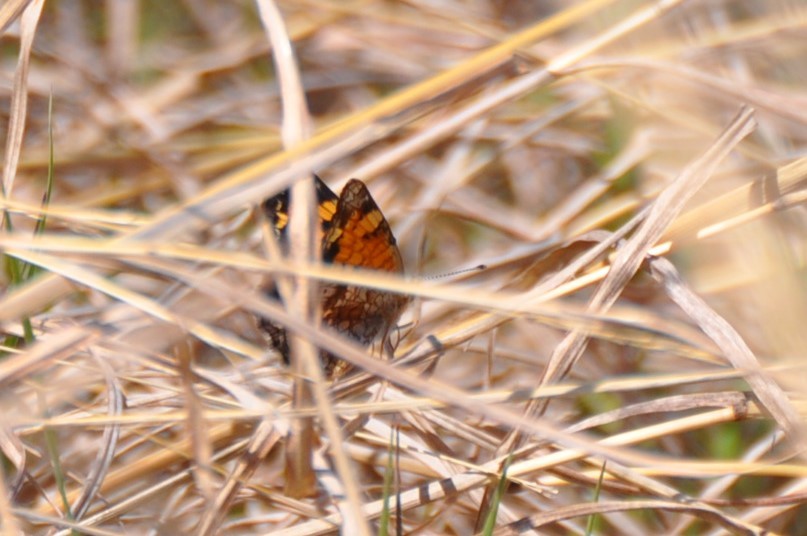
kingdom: Animalia
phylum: Arthropoda
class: Insecta
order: Lepidoptera
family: Nymphalidae
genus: Phyciodes
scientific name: Phyciodes tharos
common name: Pearl crescent
